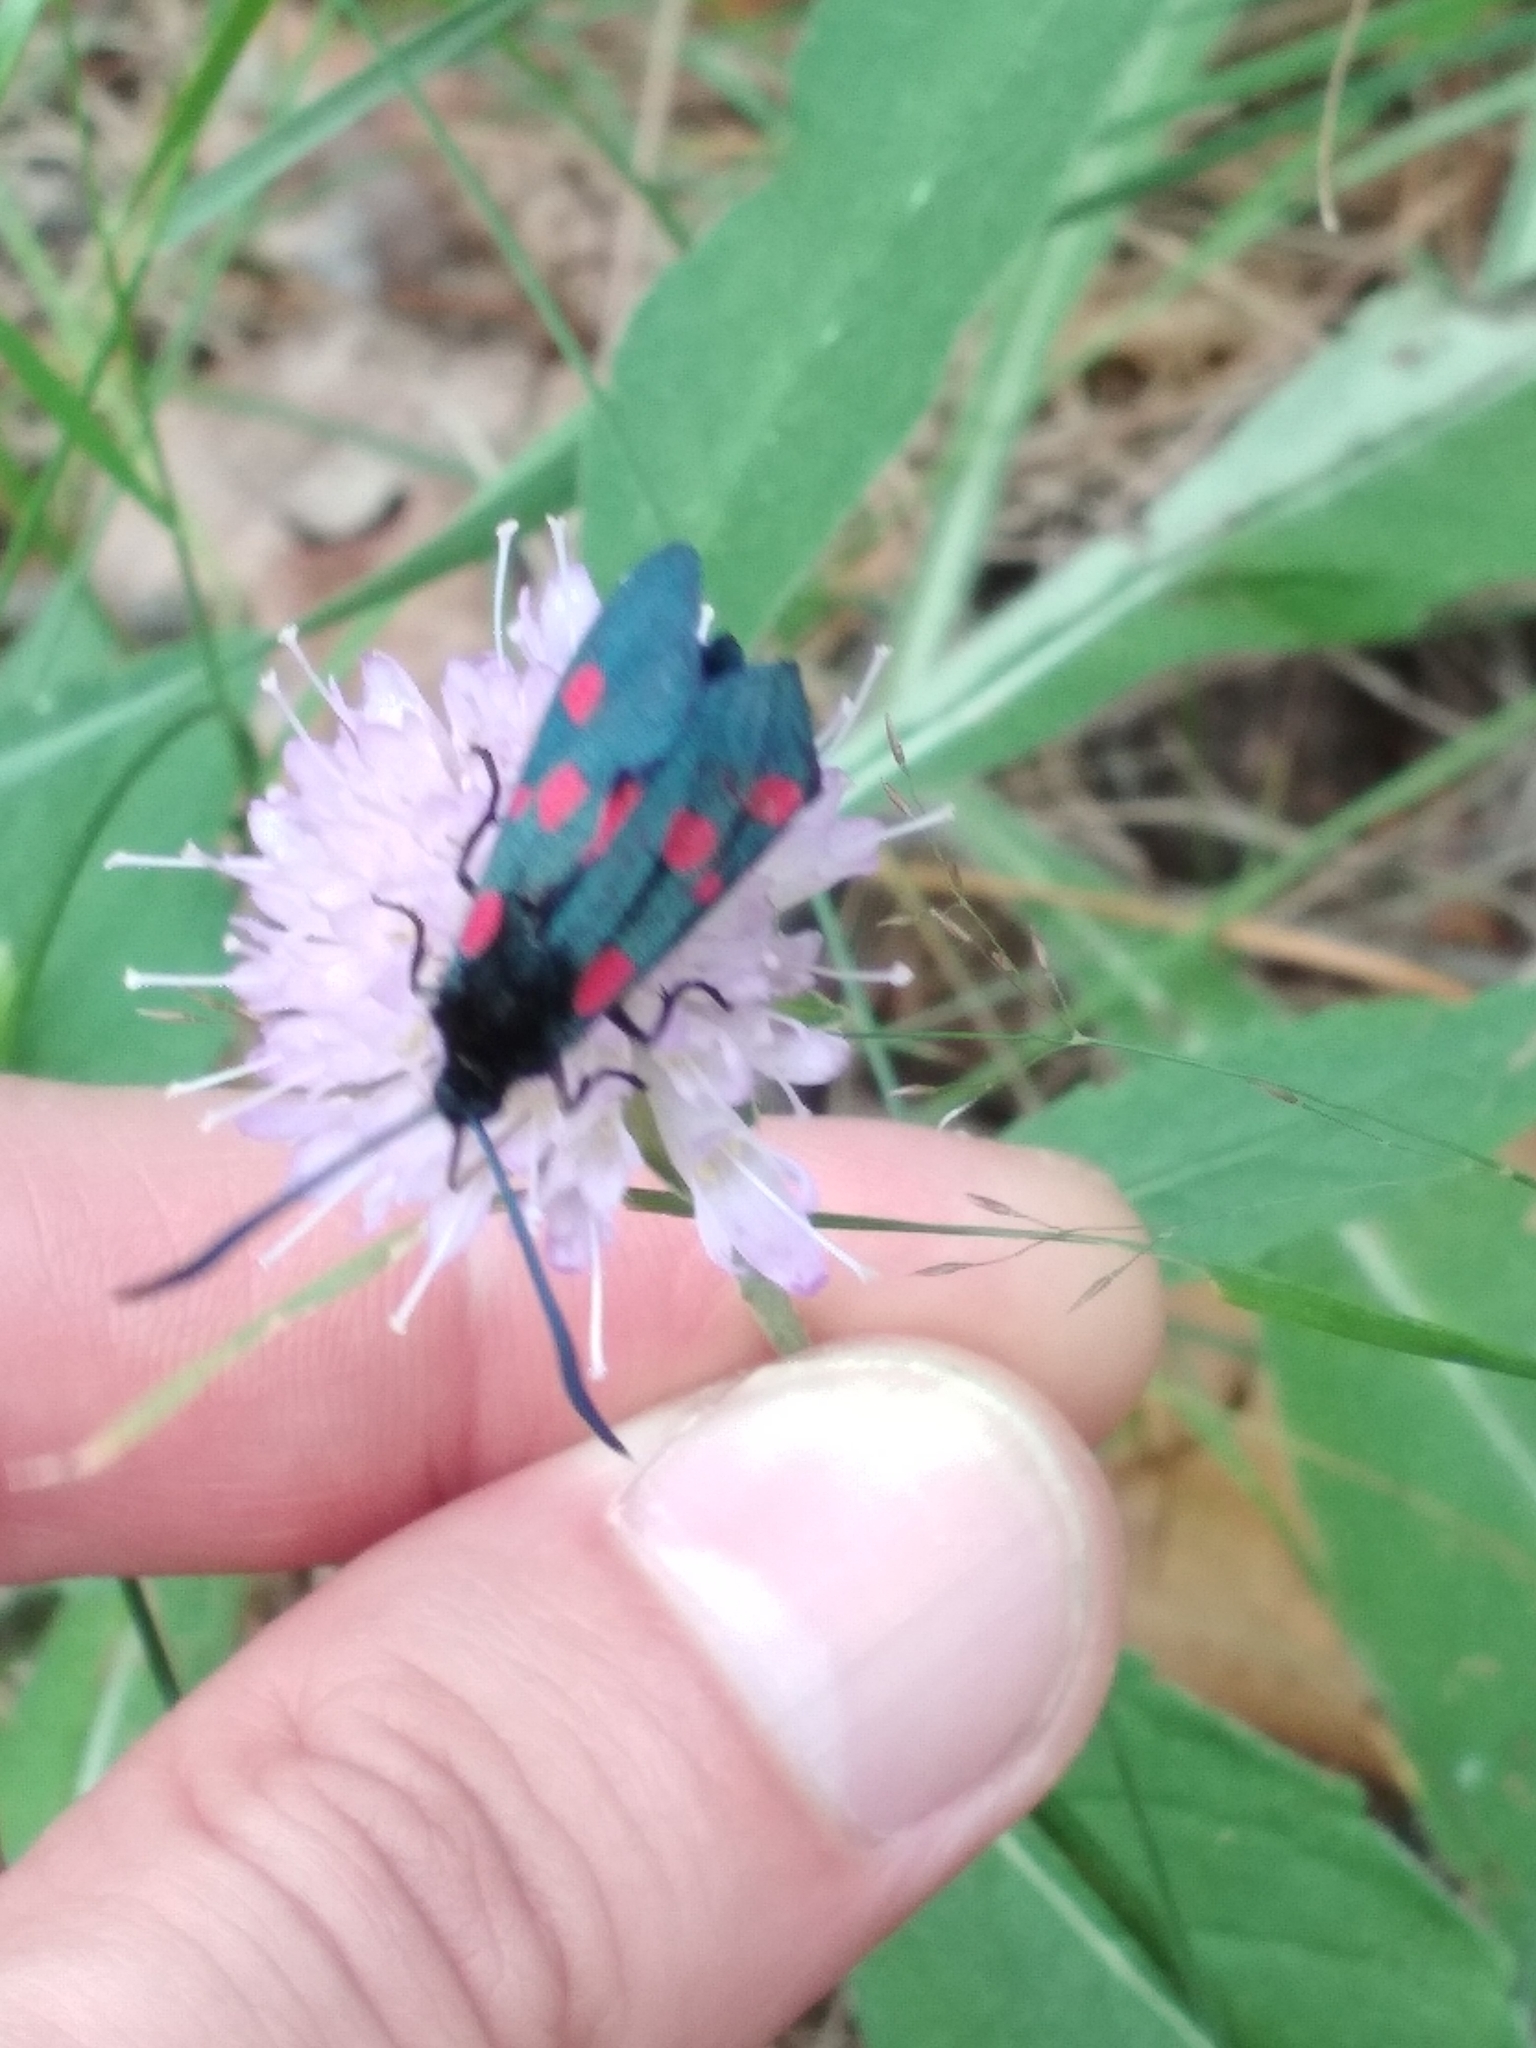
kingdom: Animalia
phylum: Arthropoda
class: Insecta
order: Lepidoptera
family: Zygaenidae
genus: Zygaena
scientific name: Zygaena lonicerae
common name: Narrow-bordered five-spot burnet
